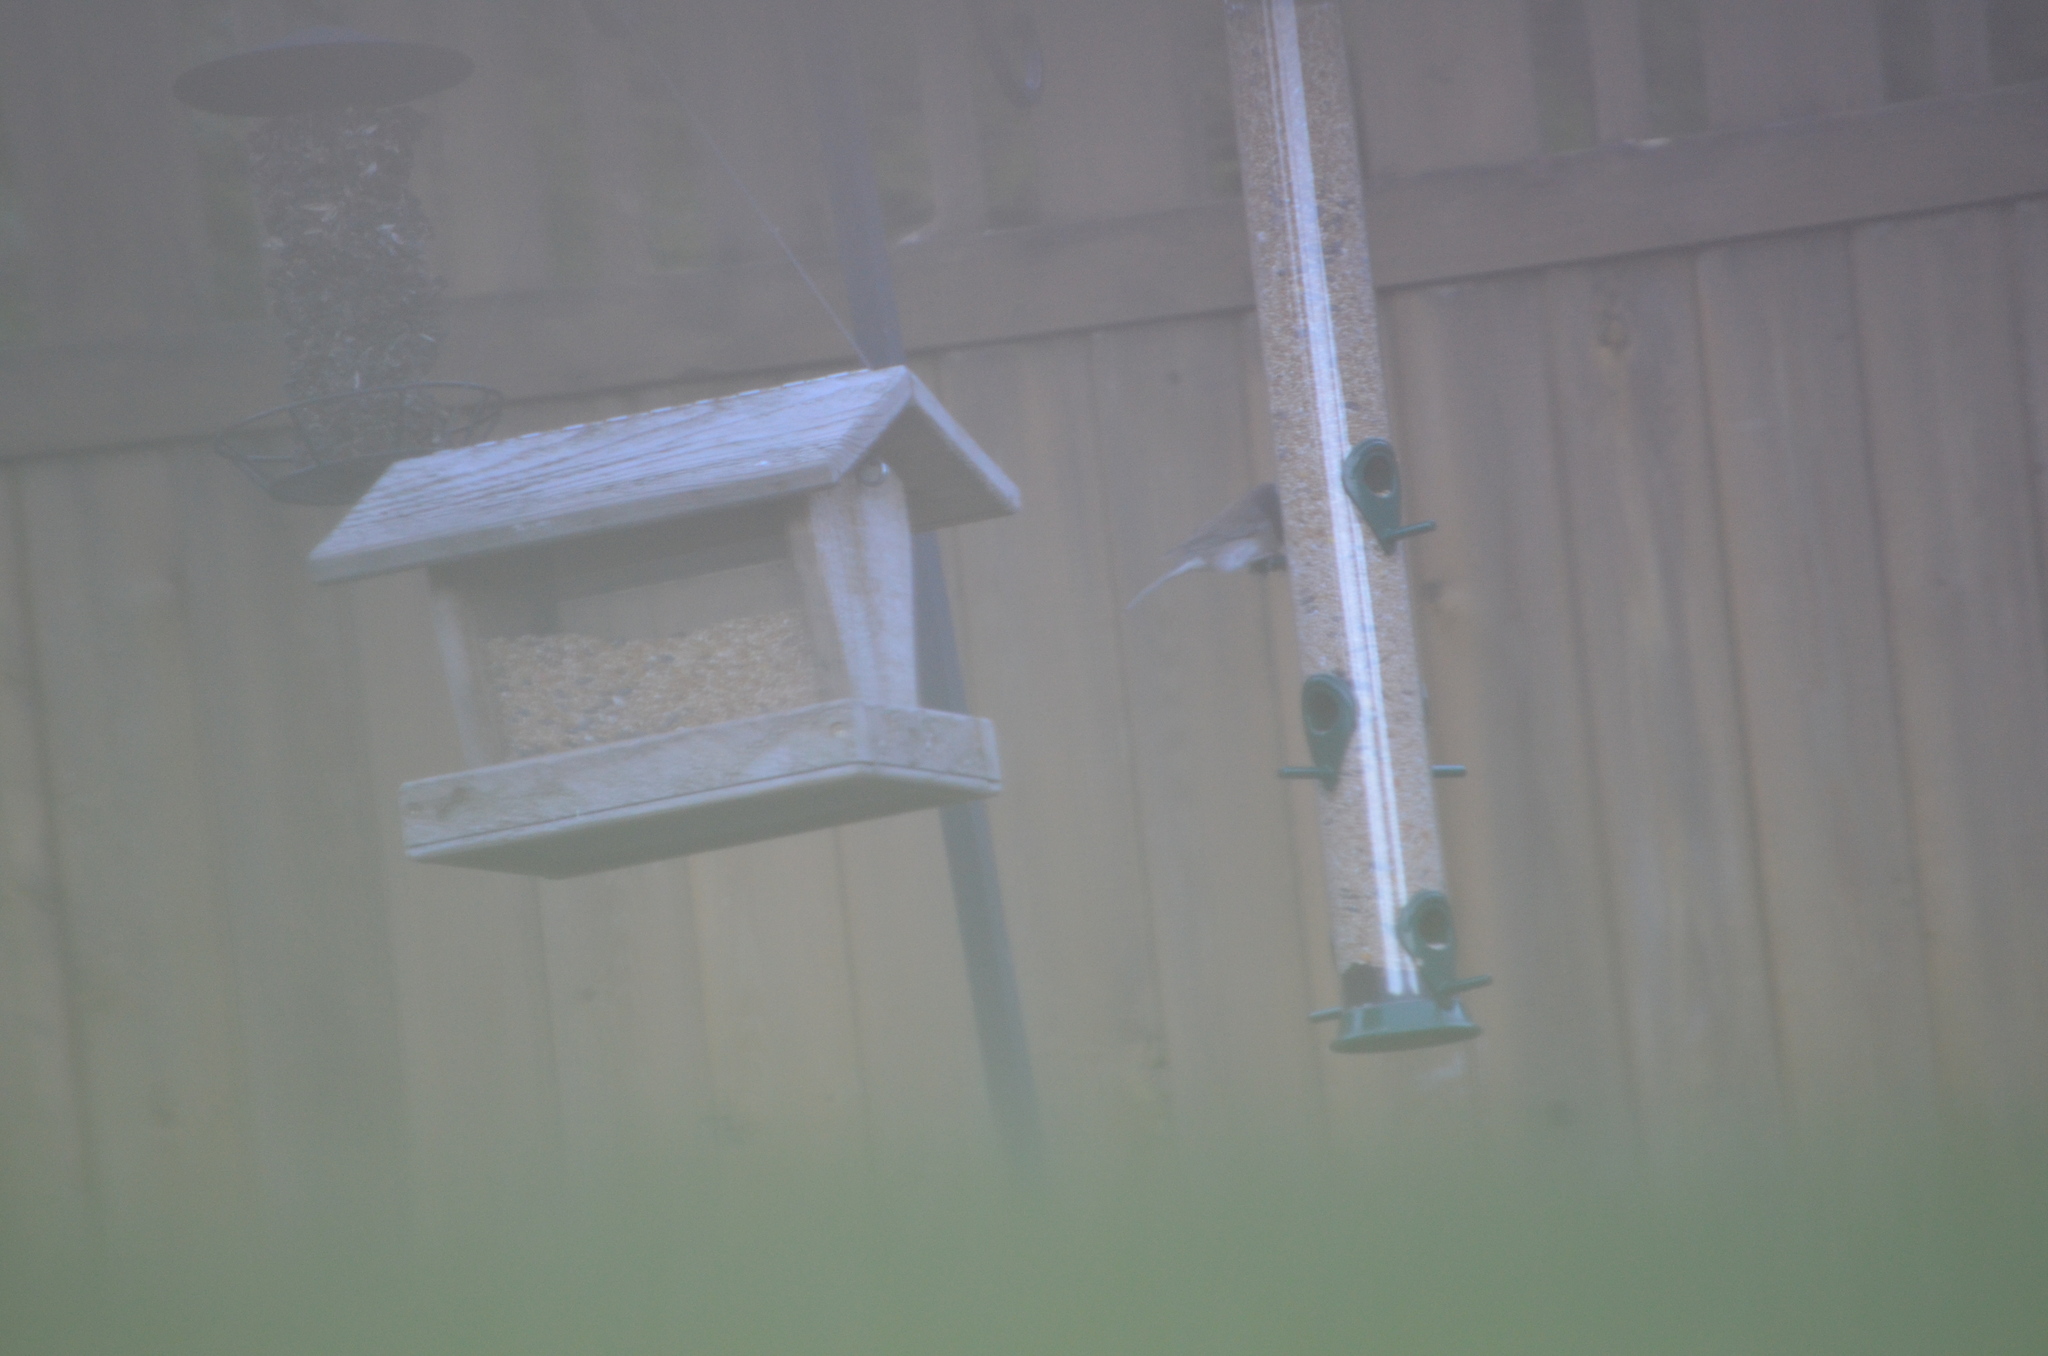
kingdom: Animalia
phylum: Chordata
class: Aves
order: Passeriformes
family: Passerellidae
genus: Junco
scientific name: Junco hyemalis
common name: Dark-eyed junco
